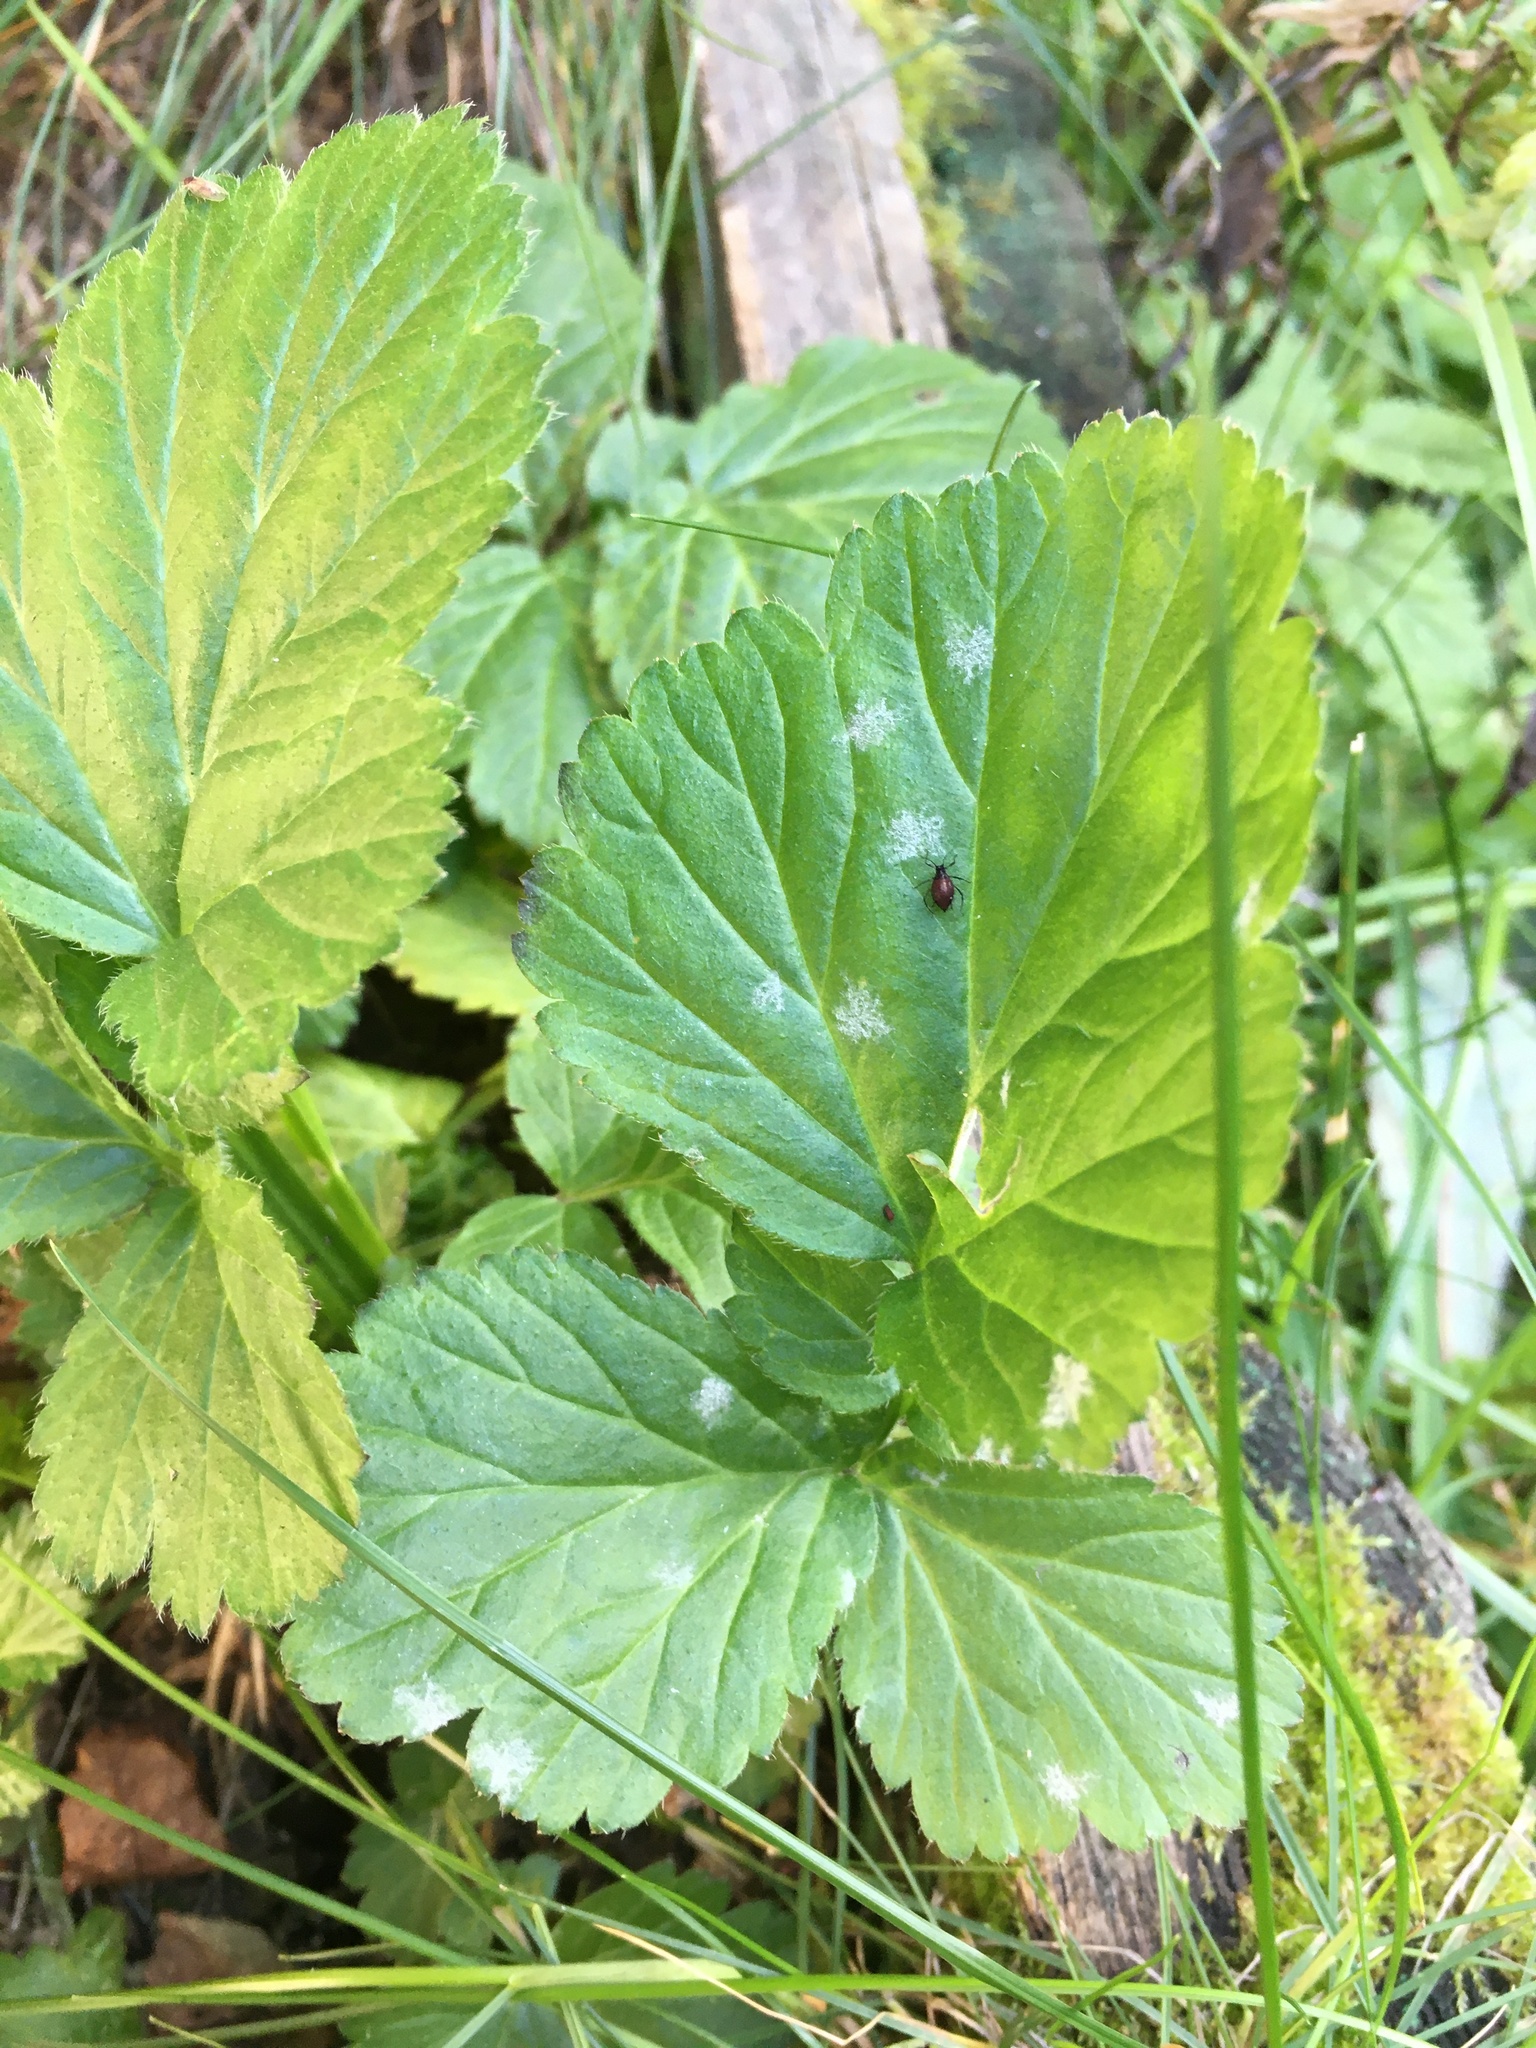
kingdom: Plantae
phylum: Tracheophyta
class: Magnoliopsida
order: Rosales
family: Rosaceae
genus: Geum
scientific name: Geum
